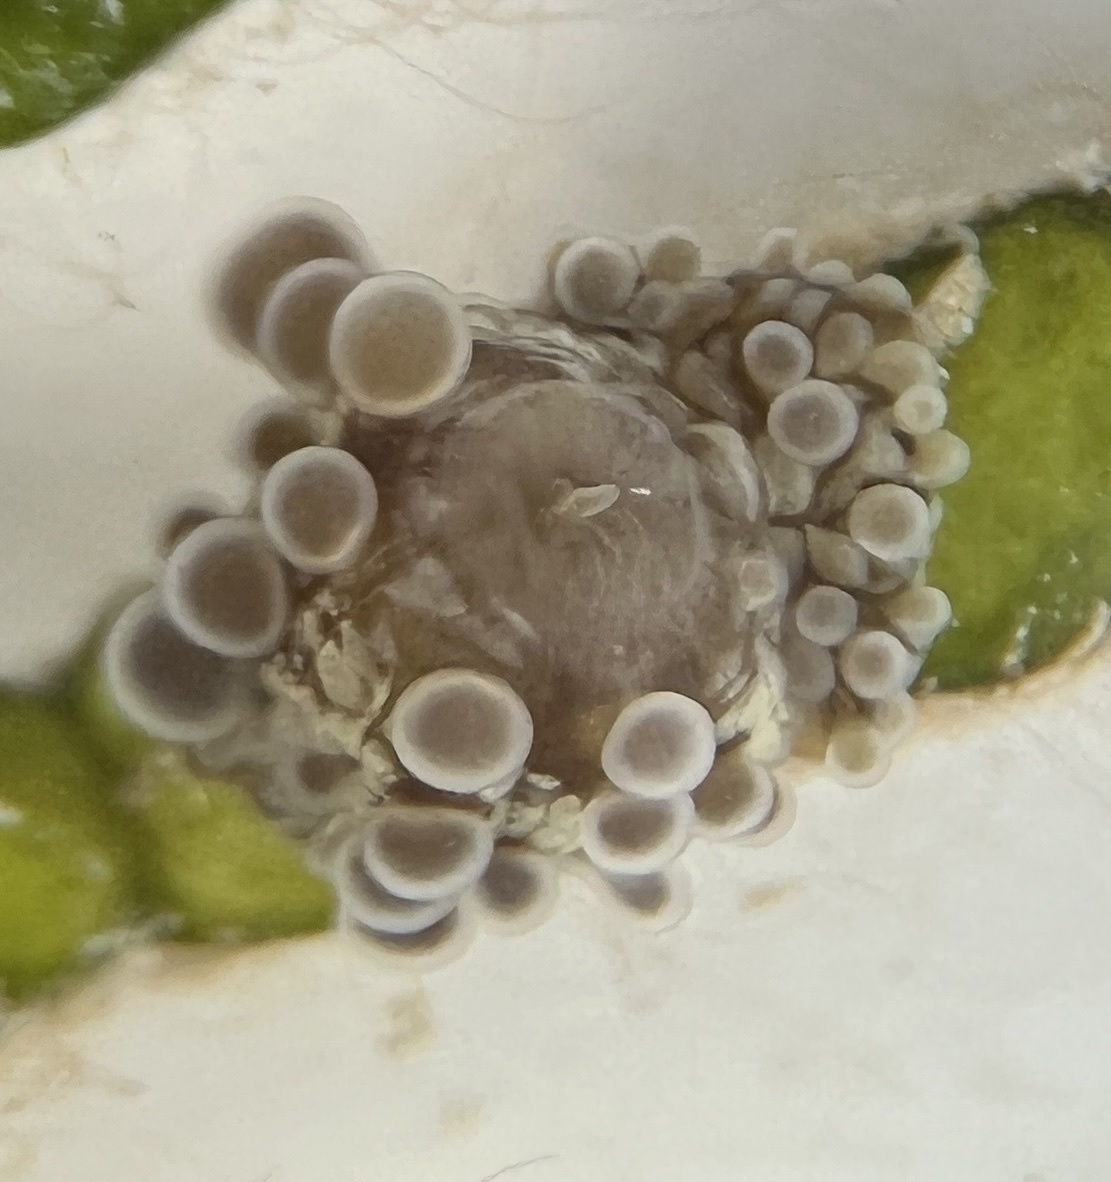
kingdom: Animalia
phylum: Cnidaria
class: Anthozoa
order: Actiniaria
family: Boloceroididae
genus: Bunodeopsis
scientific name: Bunodeopsis globulifera
